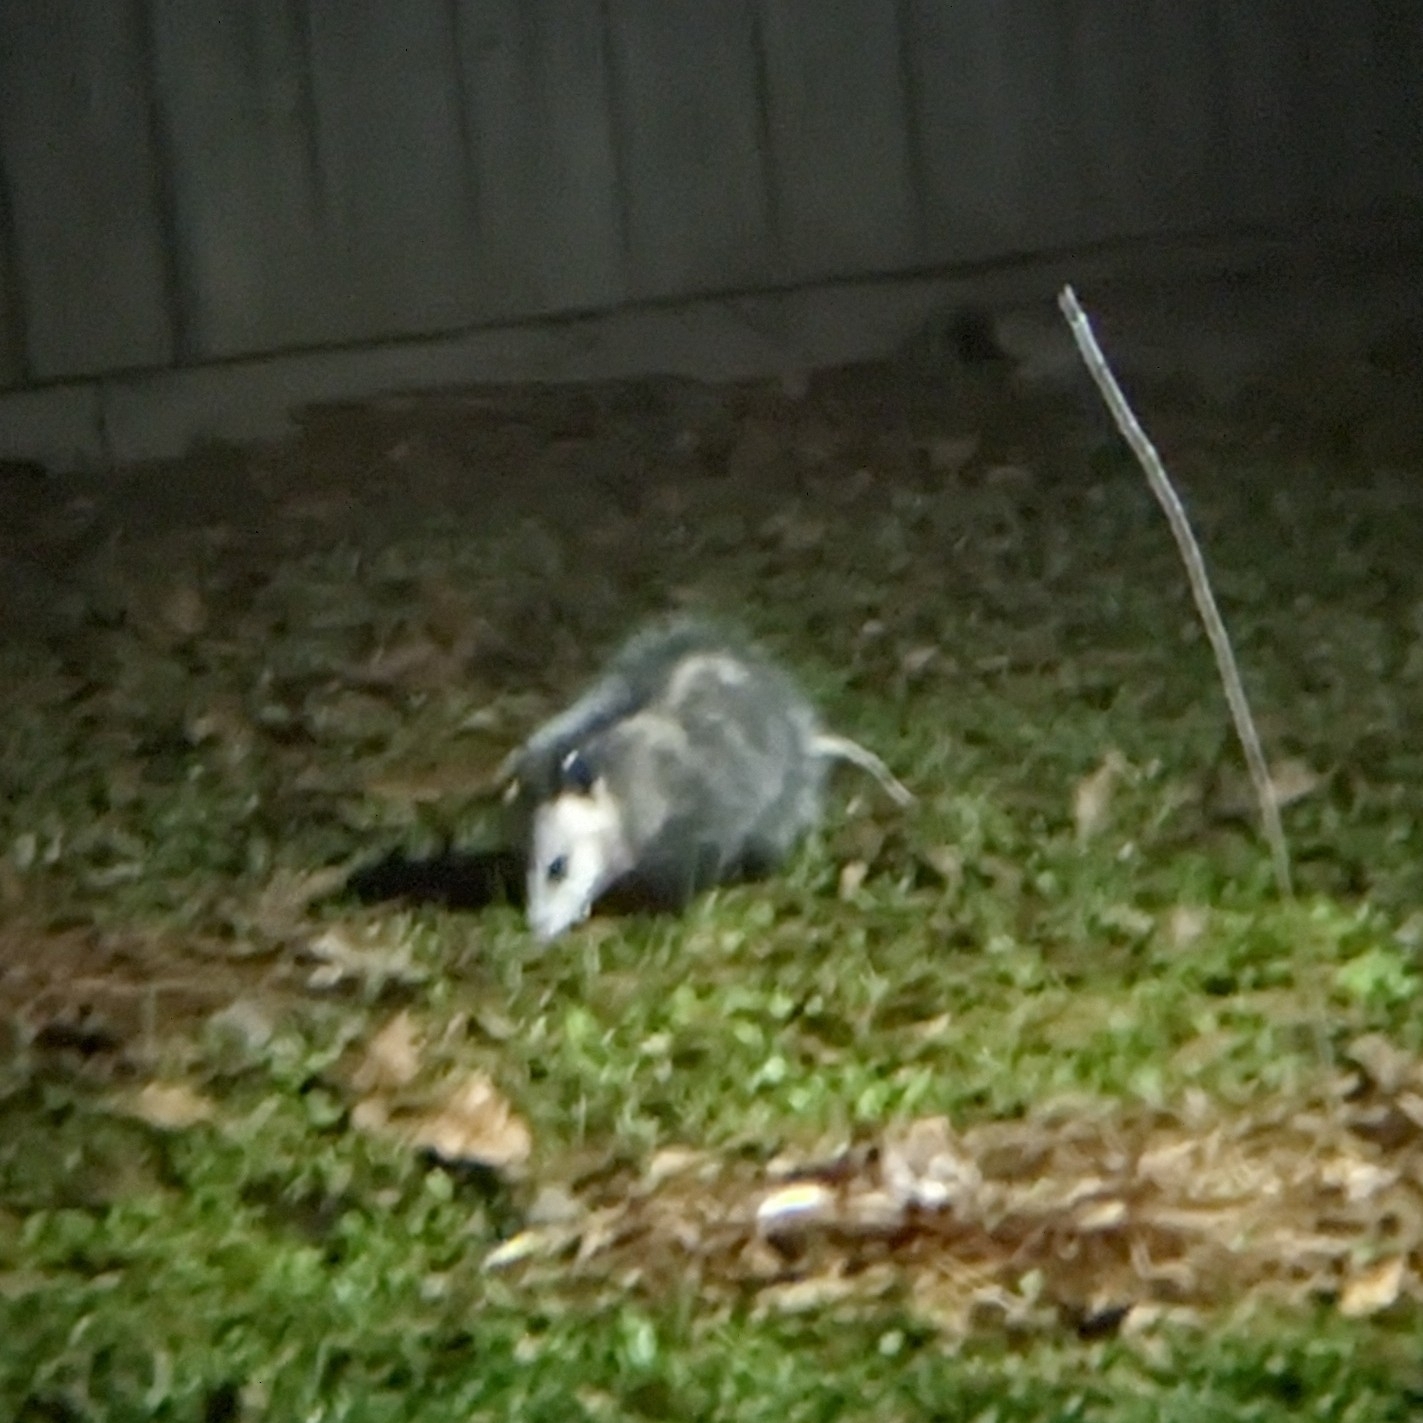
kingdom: Animalia
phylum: Chordata
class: Mammalia
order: Didelphimorphia
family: Didelphidae
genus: Didelphis
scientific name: Didelphis virginiana
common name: Virginia opossum
